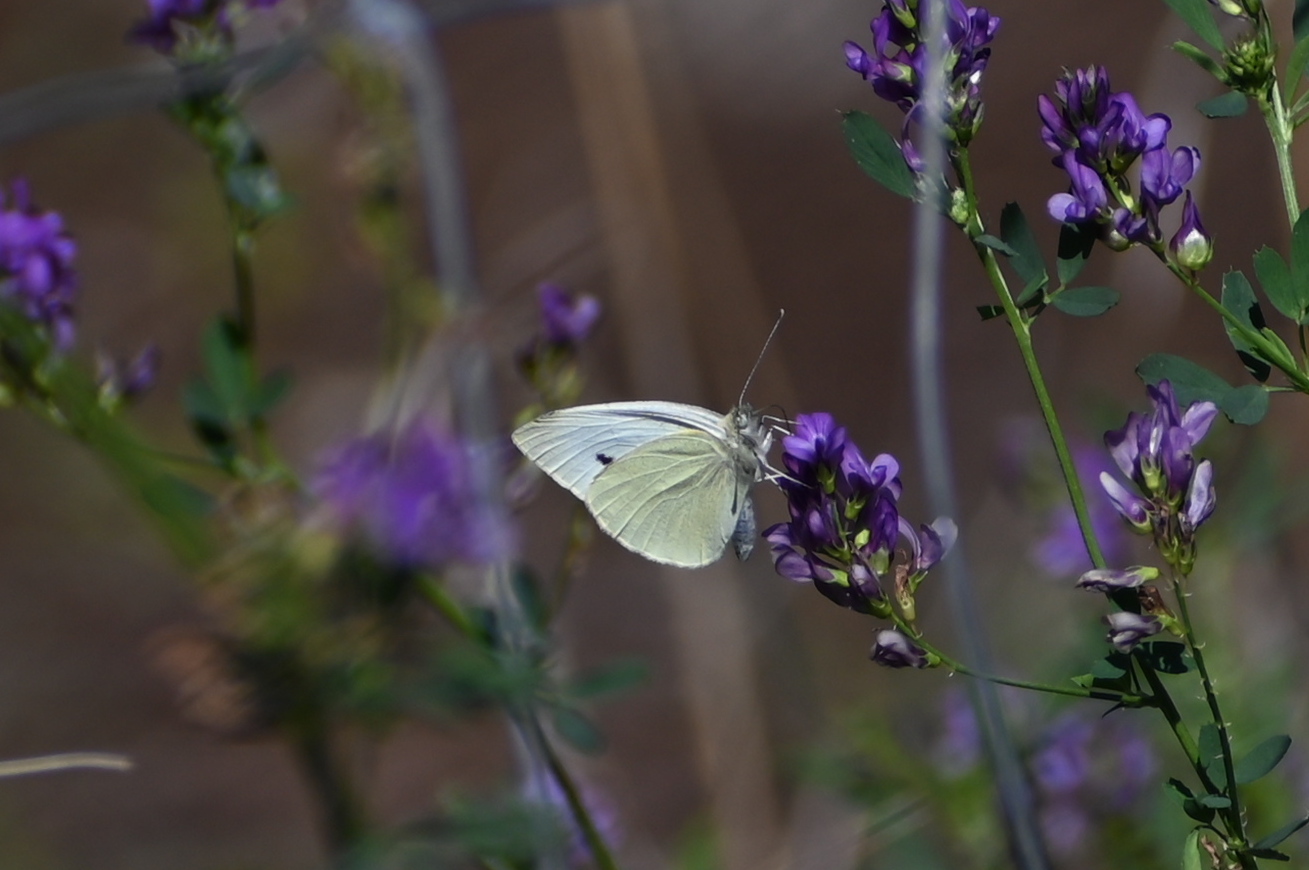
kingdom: Animalia
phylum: Arthropoda
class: Insecta
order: Lepidoptera
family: Pieridae
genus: Pieris
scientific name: Pieris rapae
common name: Small white
